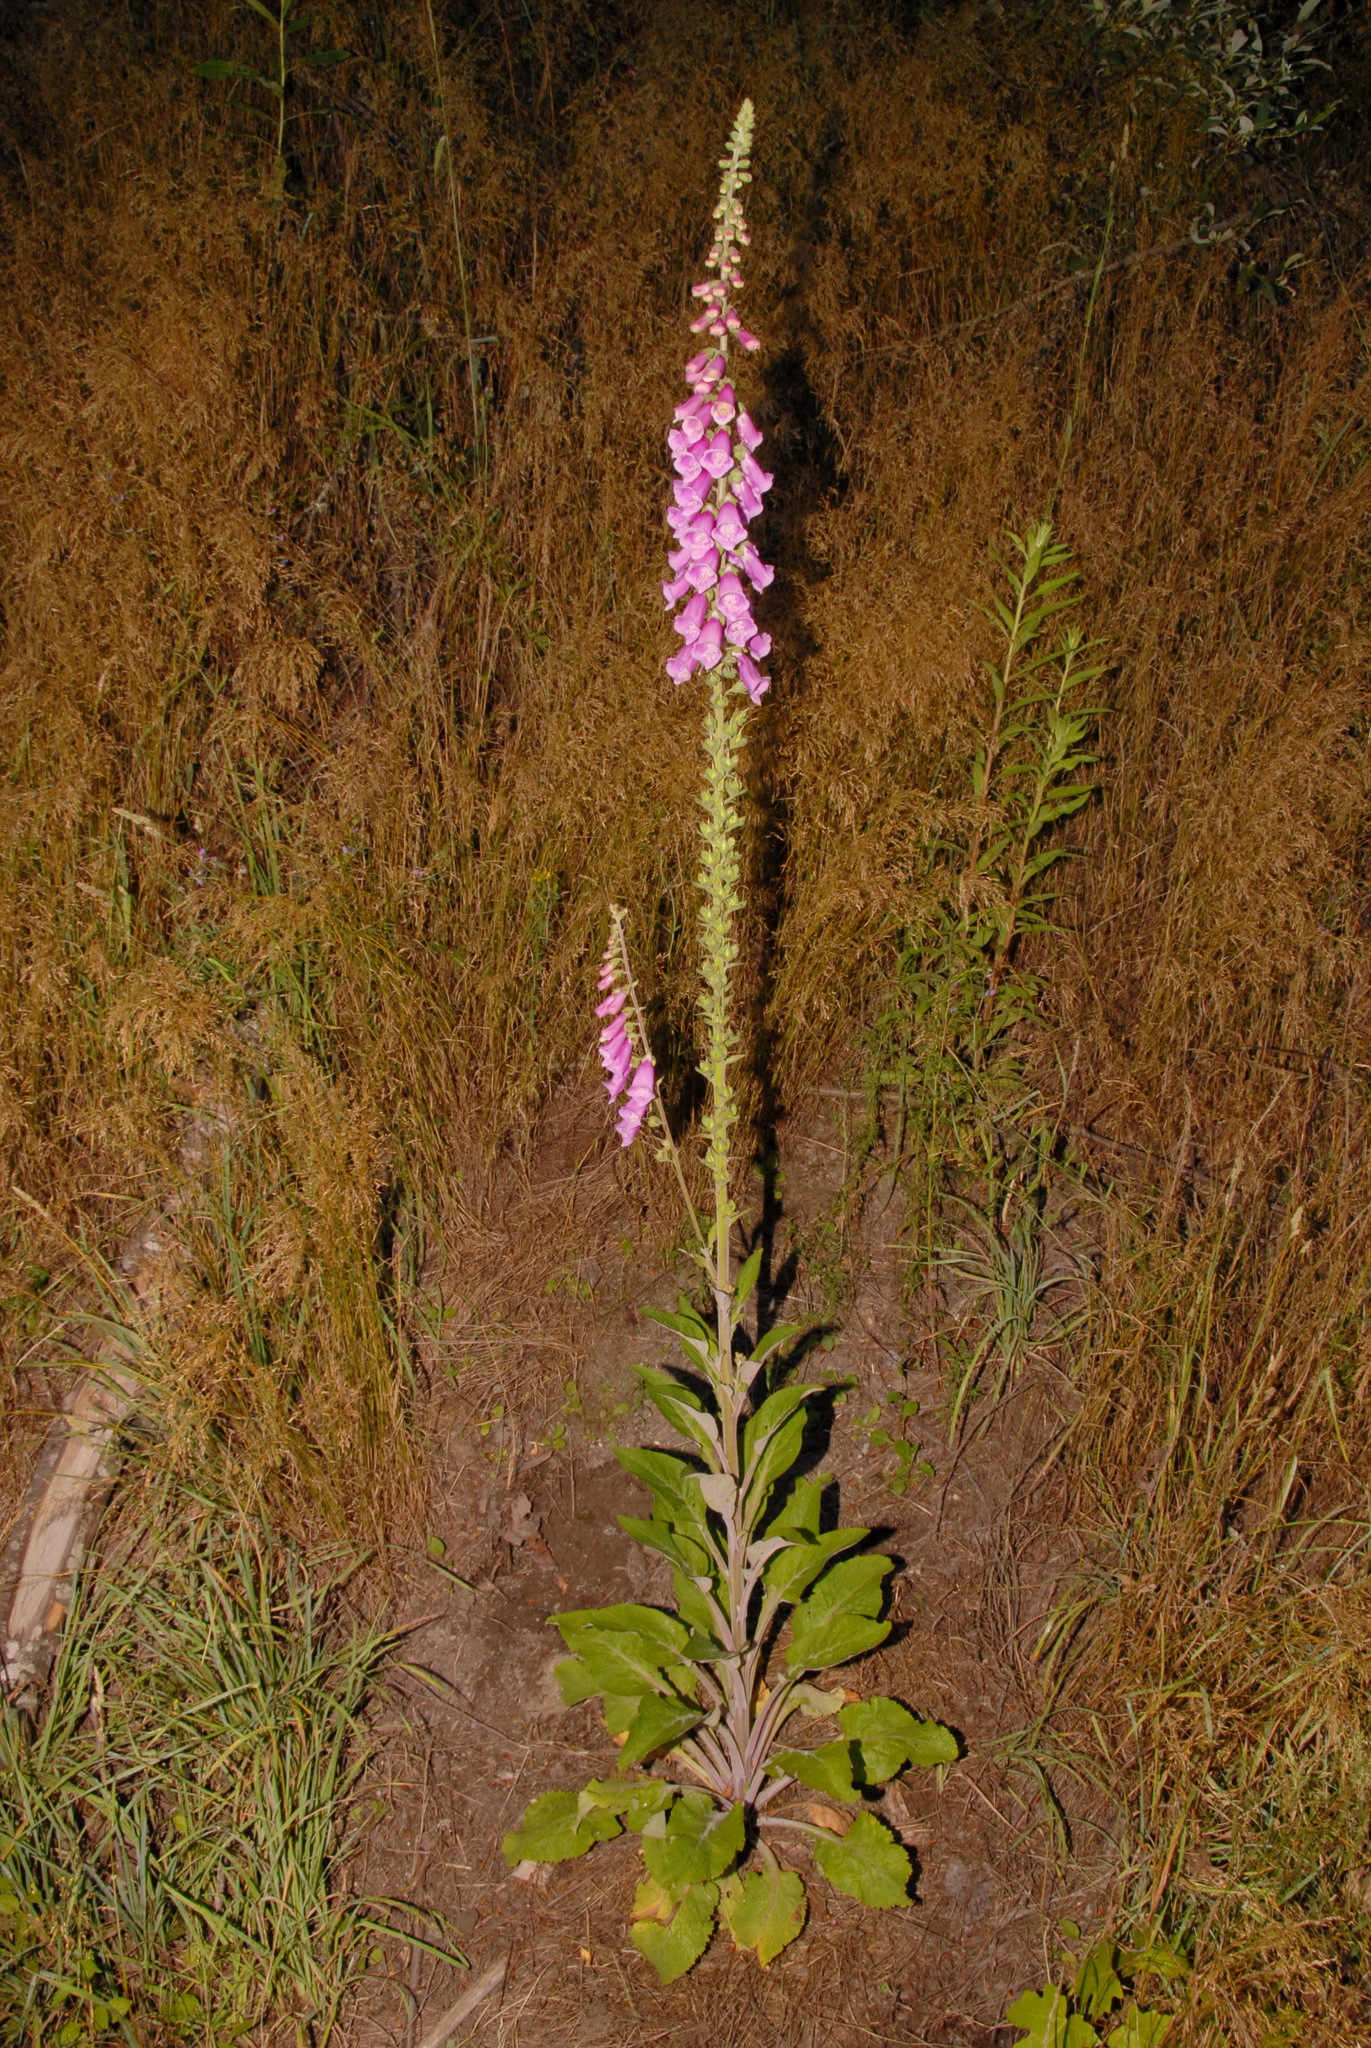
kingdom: Plantae
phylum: Tracheophyta
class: Magnoliopsida
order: Lamiales
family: Plantaginaceae
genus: Digitalis
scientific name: Digitalis purpurea
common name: Foxglove
